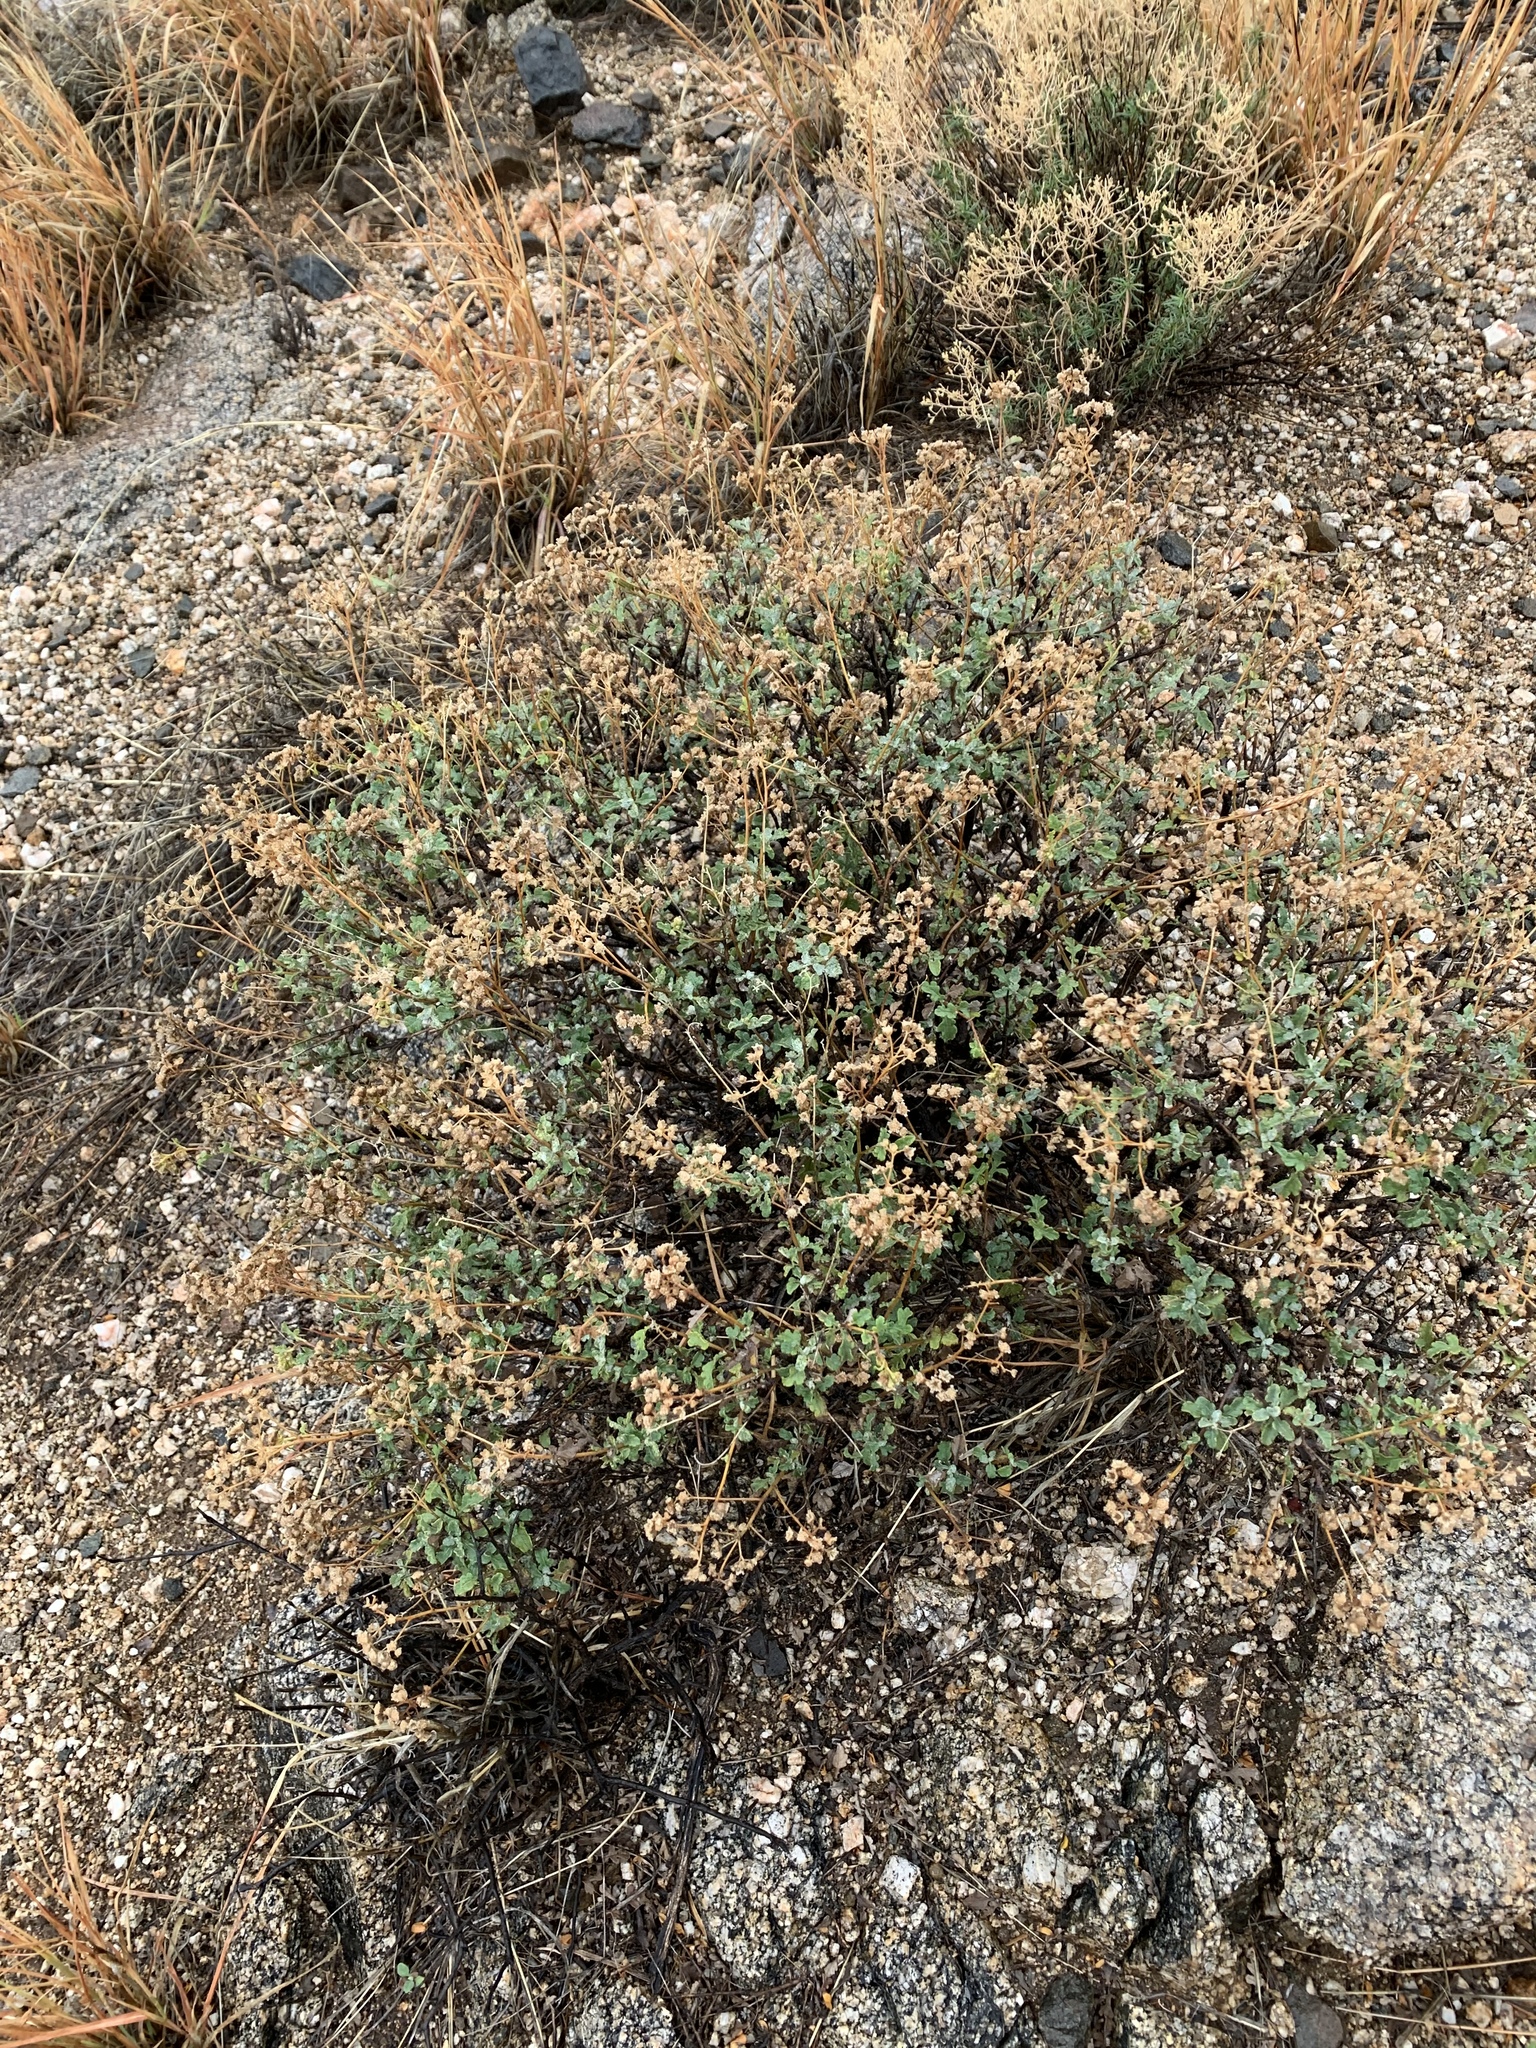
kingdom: Plantae
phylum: Tracheophyta
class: Magnoliopsida
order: Asterales
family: Asteraceae
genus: Parthenium
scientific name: Parthenium incanum
